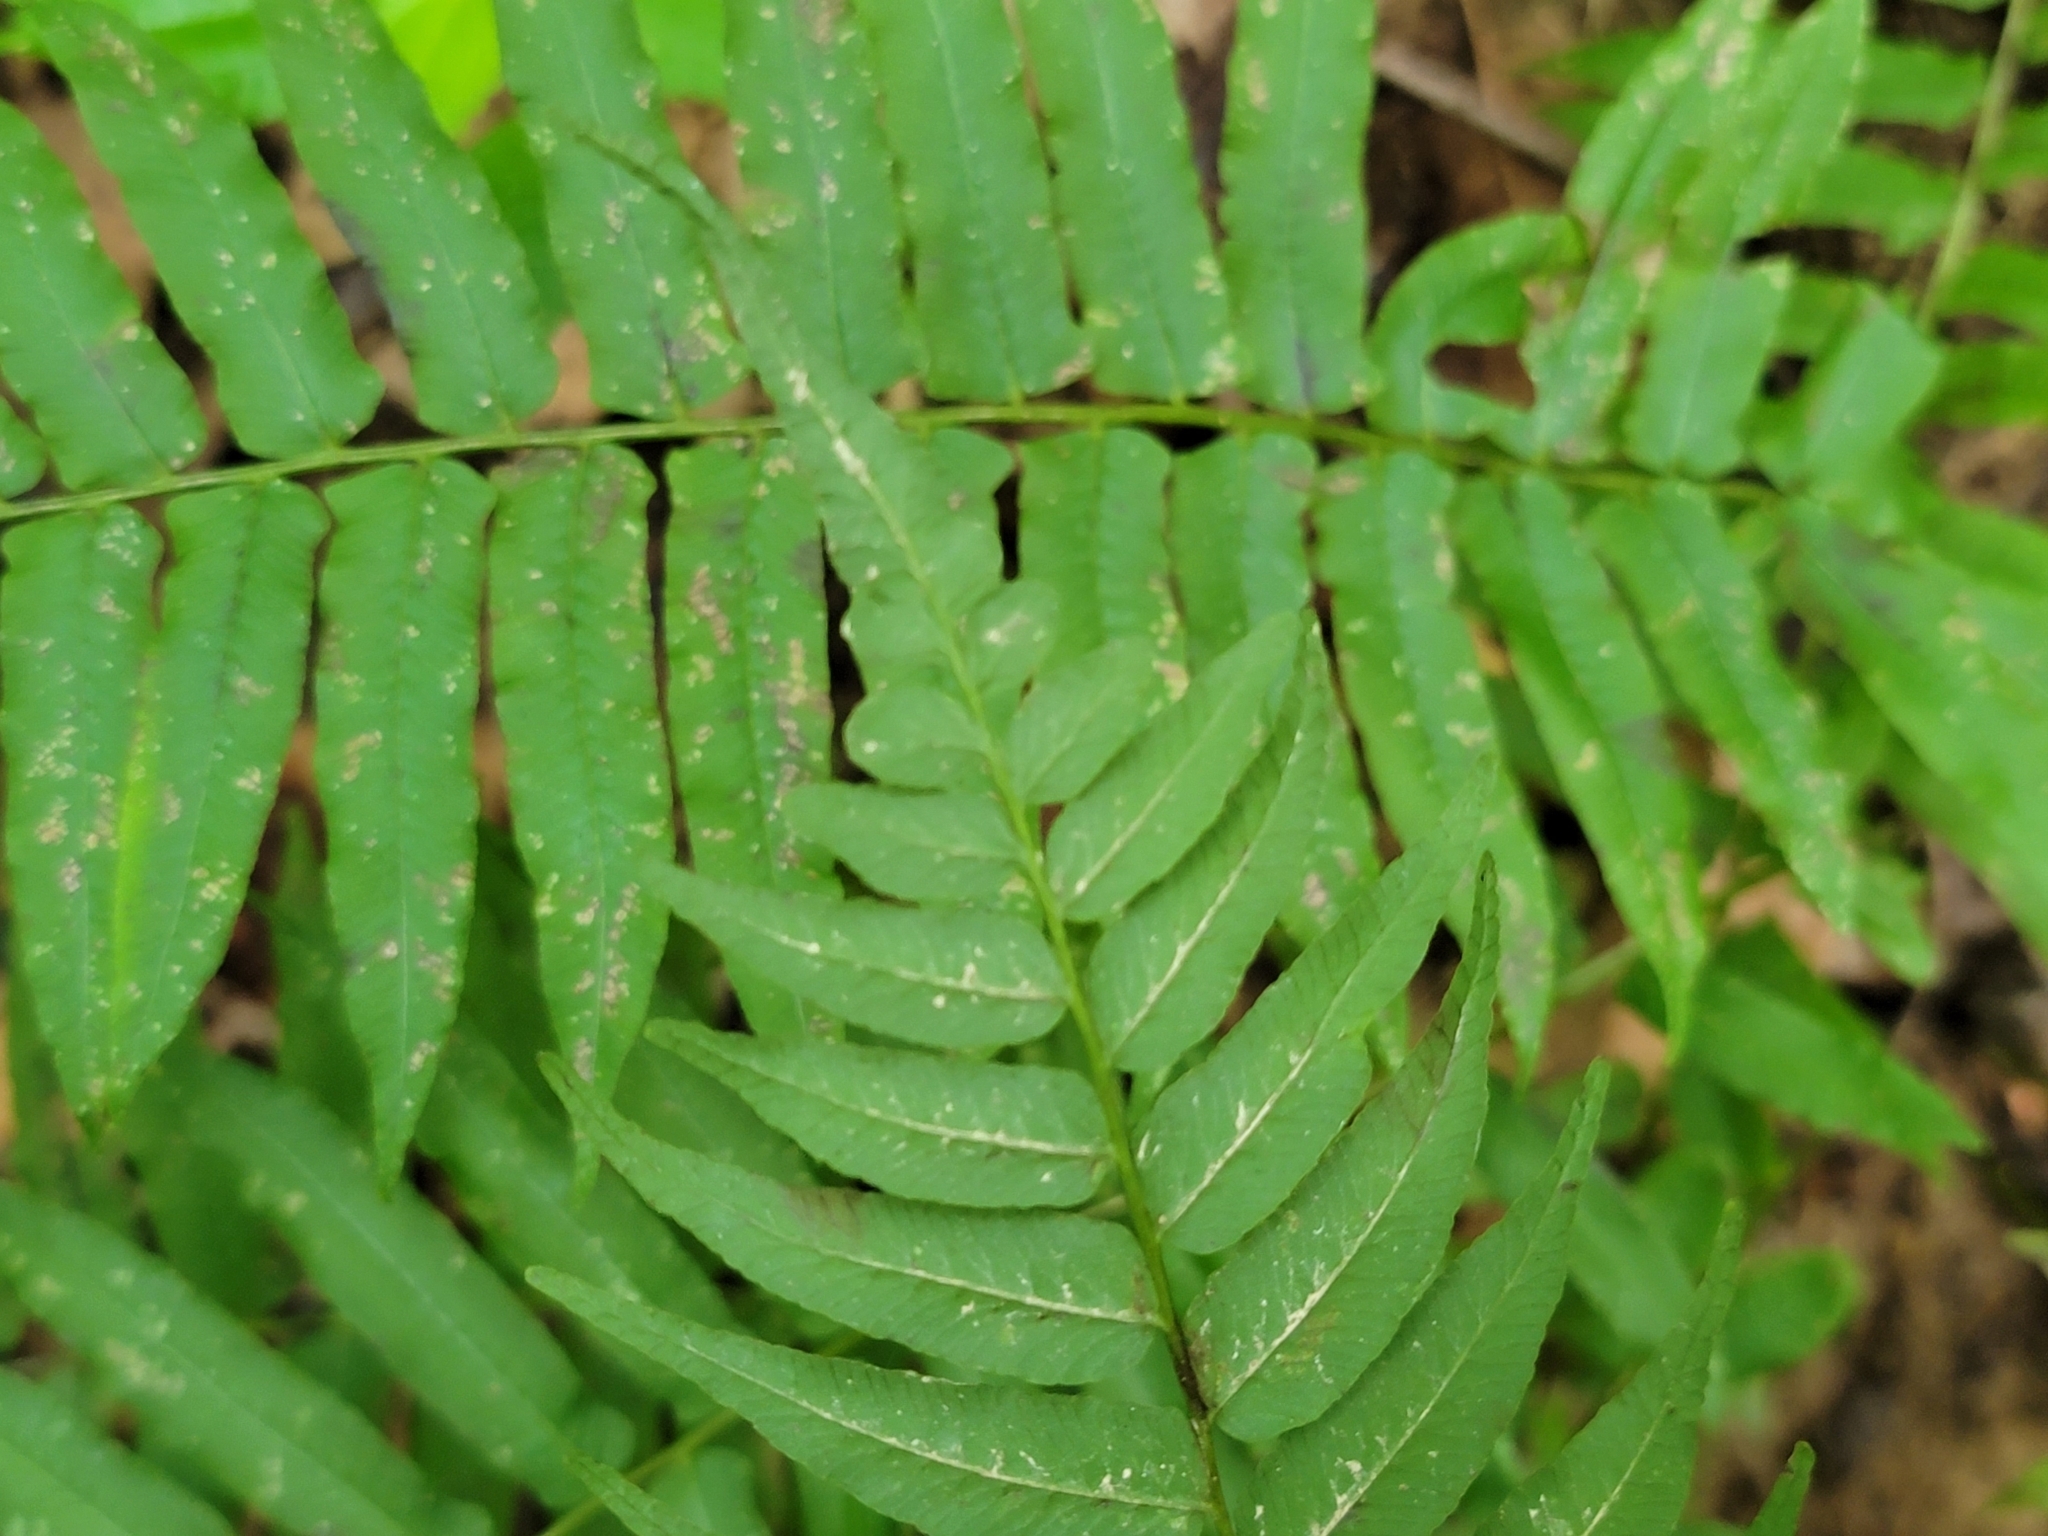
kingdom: Plantae
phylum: Tracheophyta
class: Polypodiopsida
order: Polypodiales
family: Diplaziopsidaceae
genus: Homalosorus
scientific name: Homalosorus pycnocarpos
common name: Glade fern
